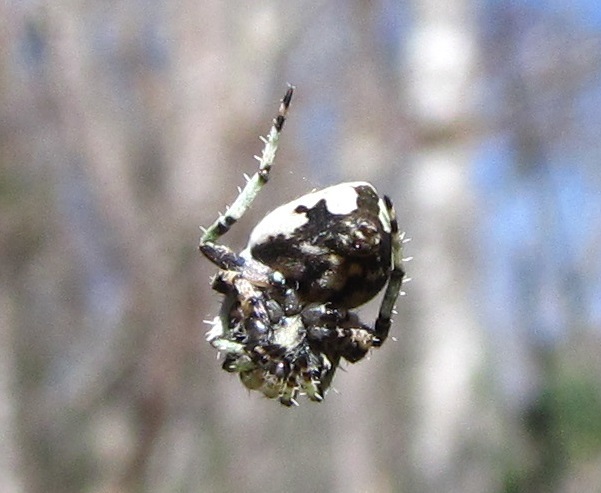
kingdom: Animalia
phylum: Arthropoda
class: Arachnida
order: Araneae
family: Araneidae
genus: Eustala
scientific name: Eustala anastera
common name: Orb weavers
